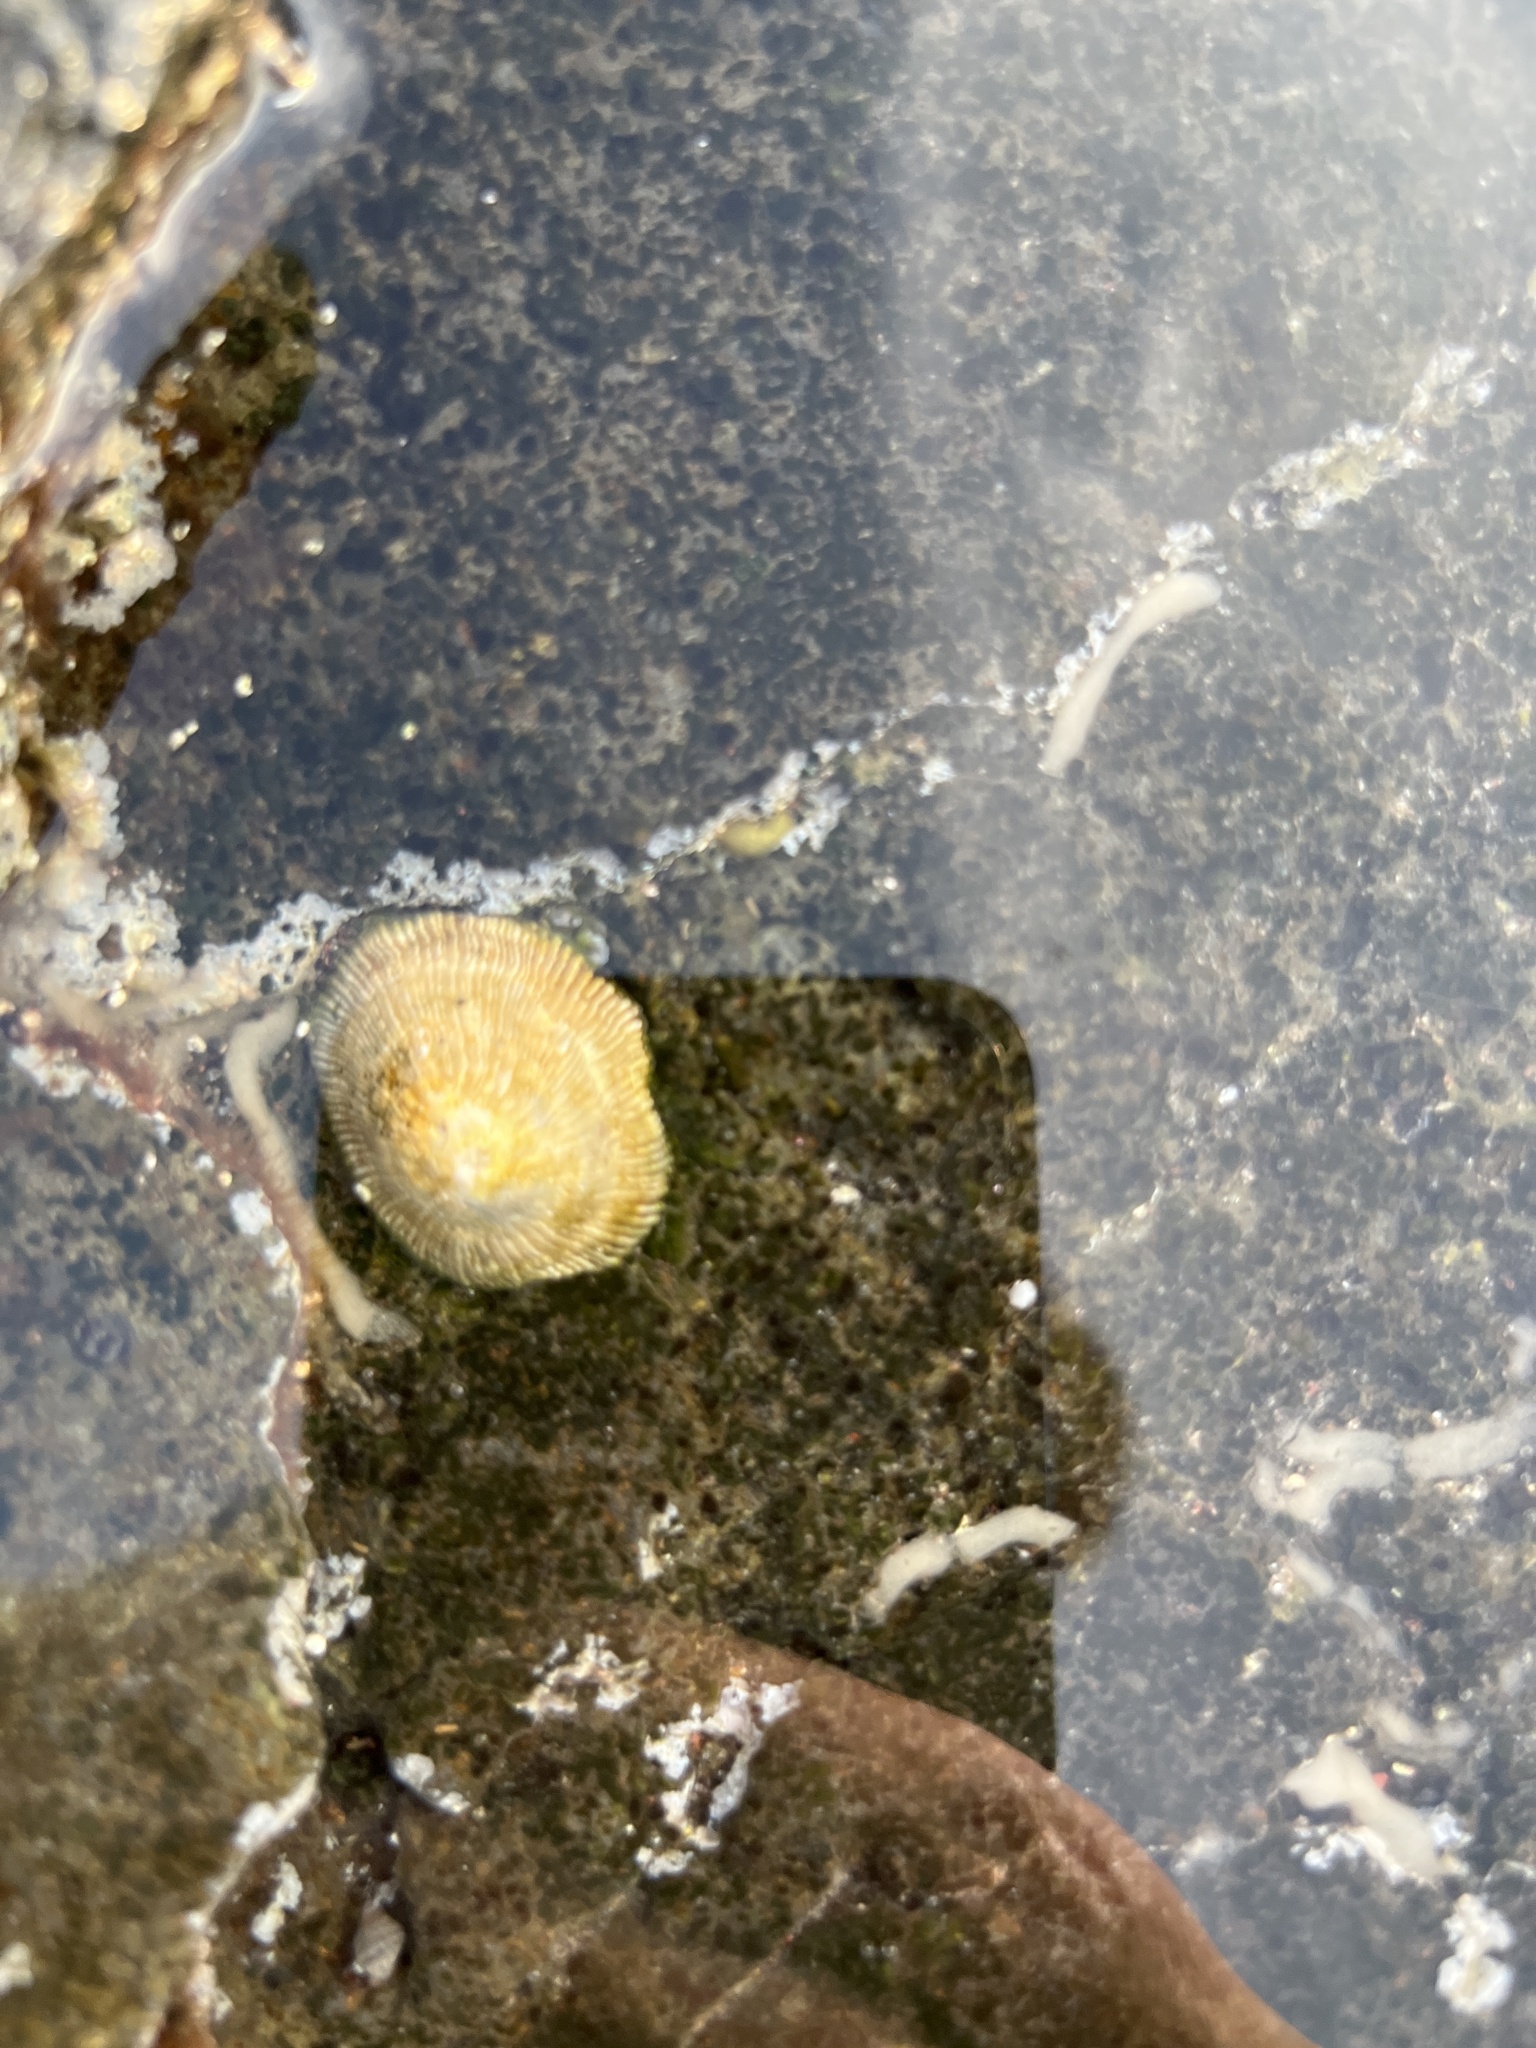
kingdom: Animalia
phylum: Mollusca
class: Gastropoda
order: Siphonariida
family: Siphonariidae
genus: Siphonaria
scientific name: Siphonaria pectinata
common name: Striped false limpet
